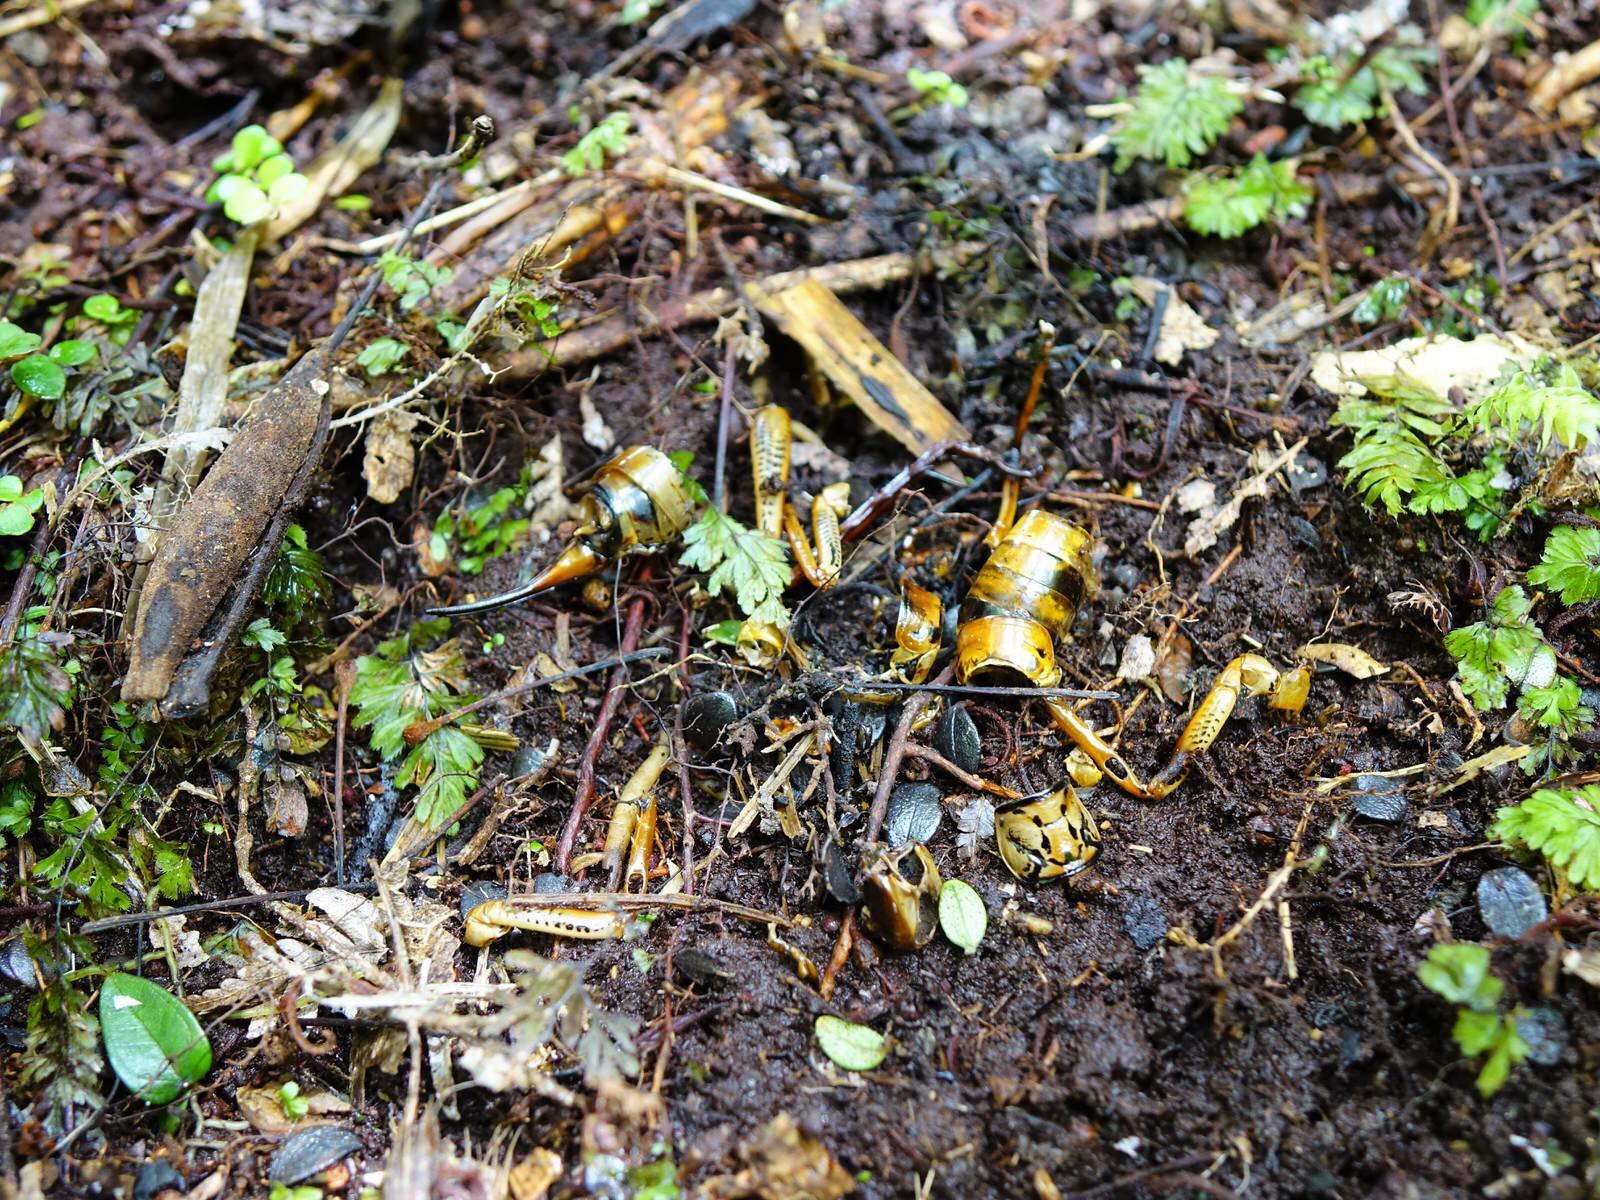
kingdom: Animalia
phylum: Arthropoda
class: Insecta
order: Orthoptera
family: Anostostomatidae
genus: Hemideina
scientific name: Hemideina thoracica
